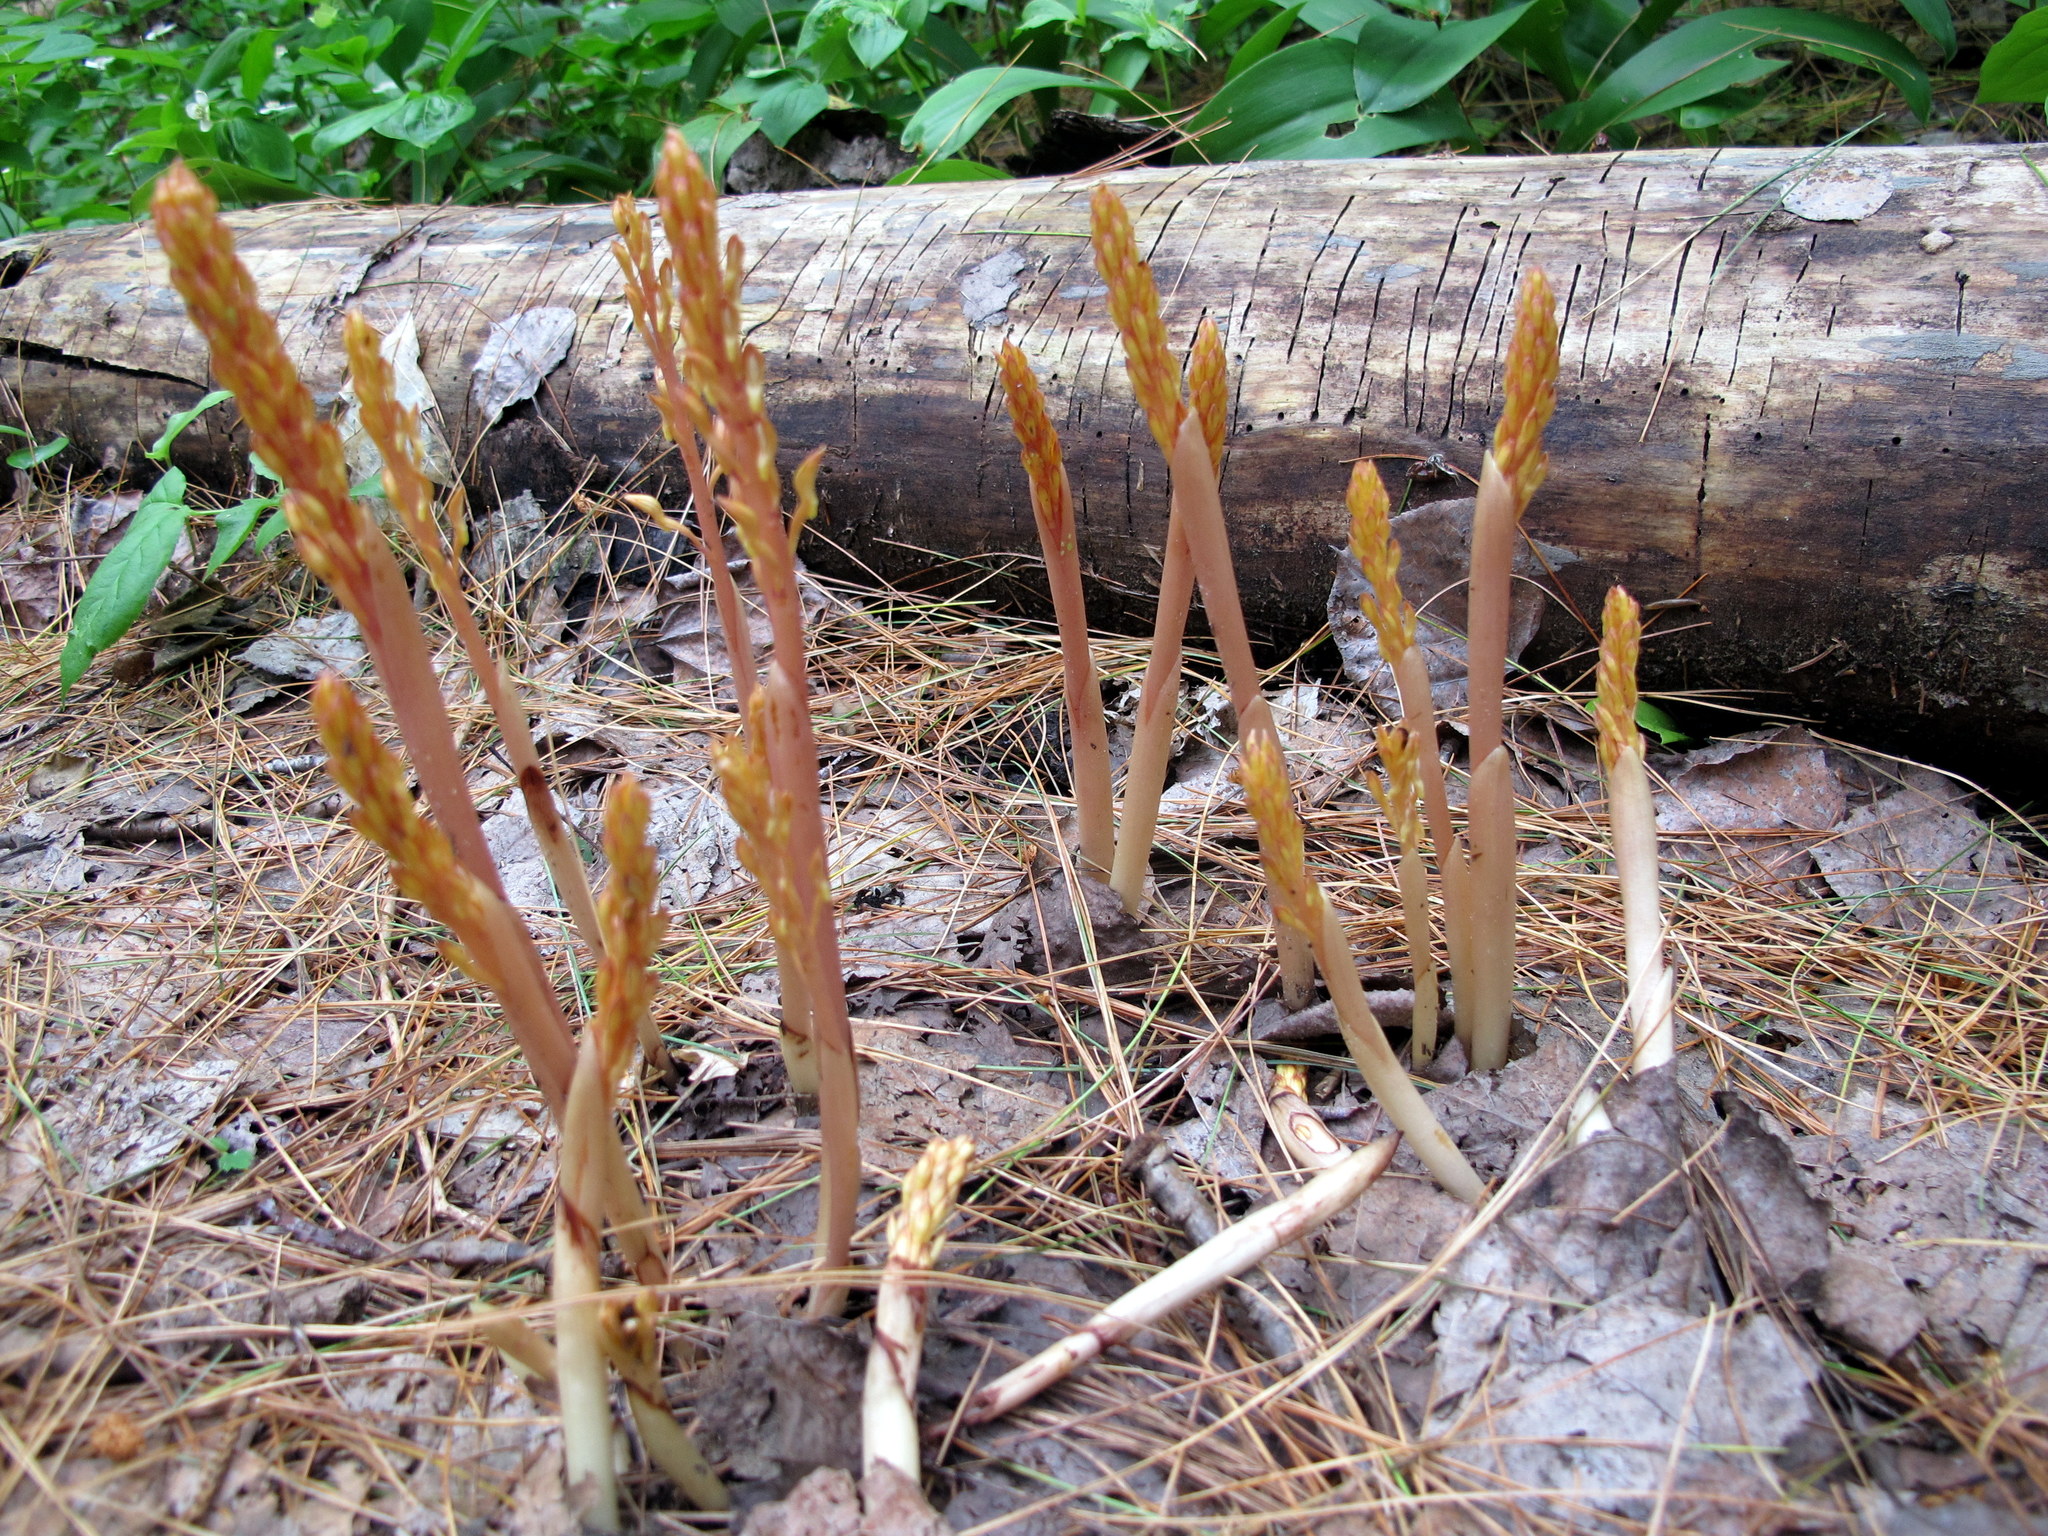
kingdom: Plantae
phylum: Tracheophyta
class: Liliopsida
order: Asparagales
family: Orchidaceae
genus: Corallorhiza
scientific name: Corallorhiza maculata
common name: Spotted coralroot
